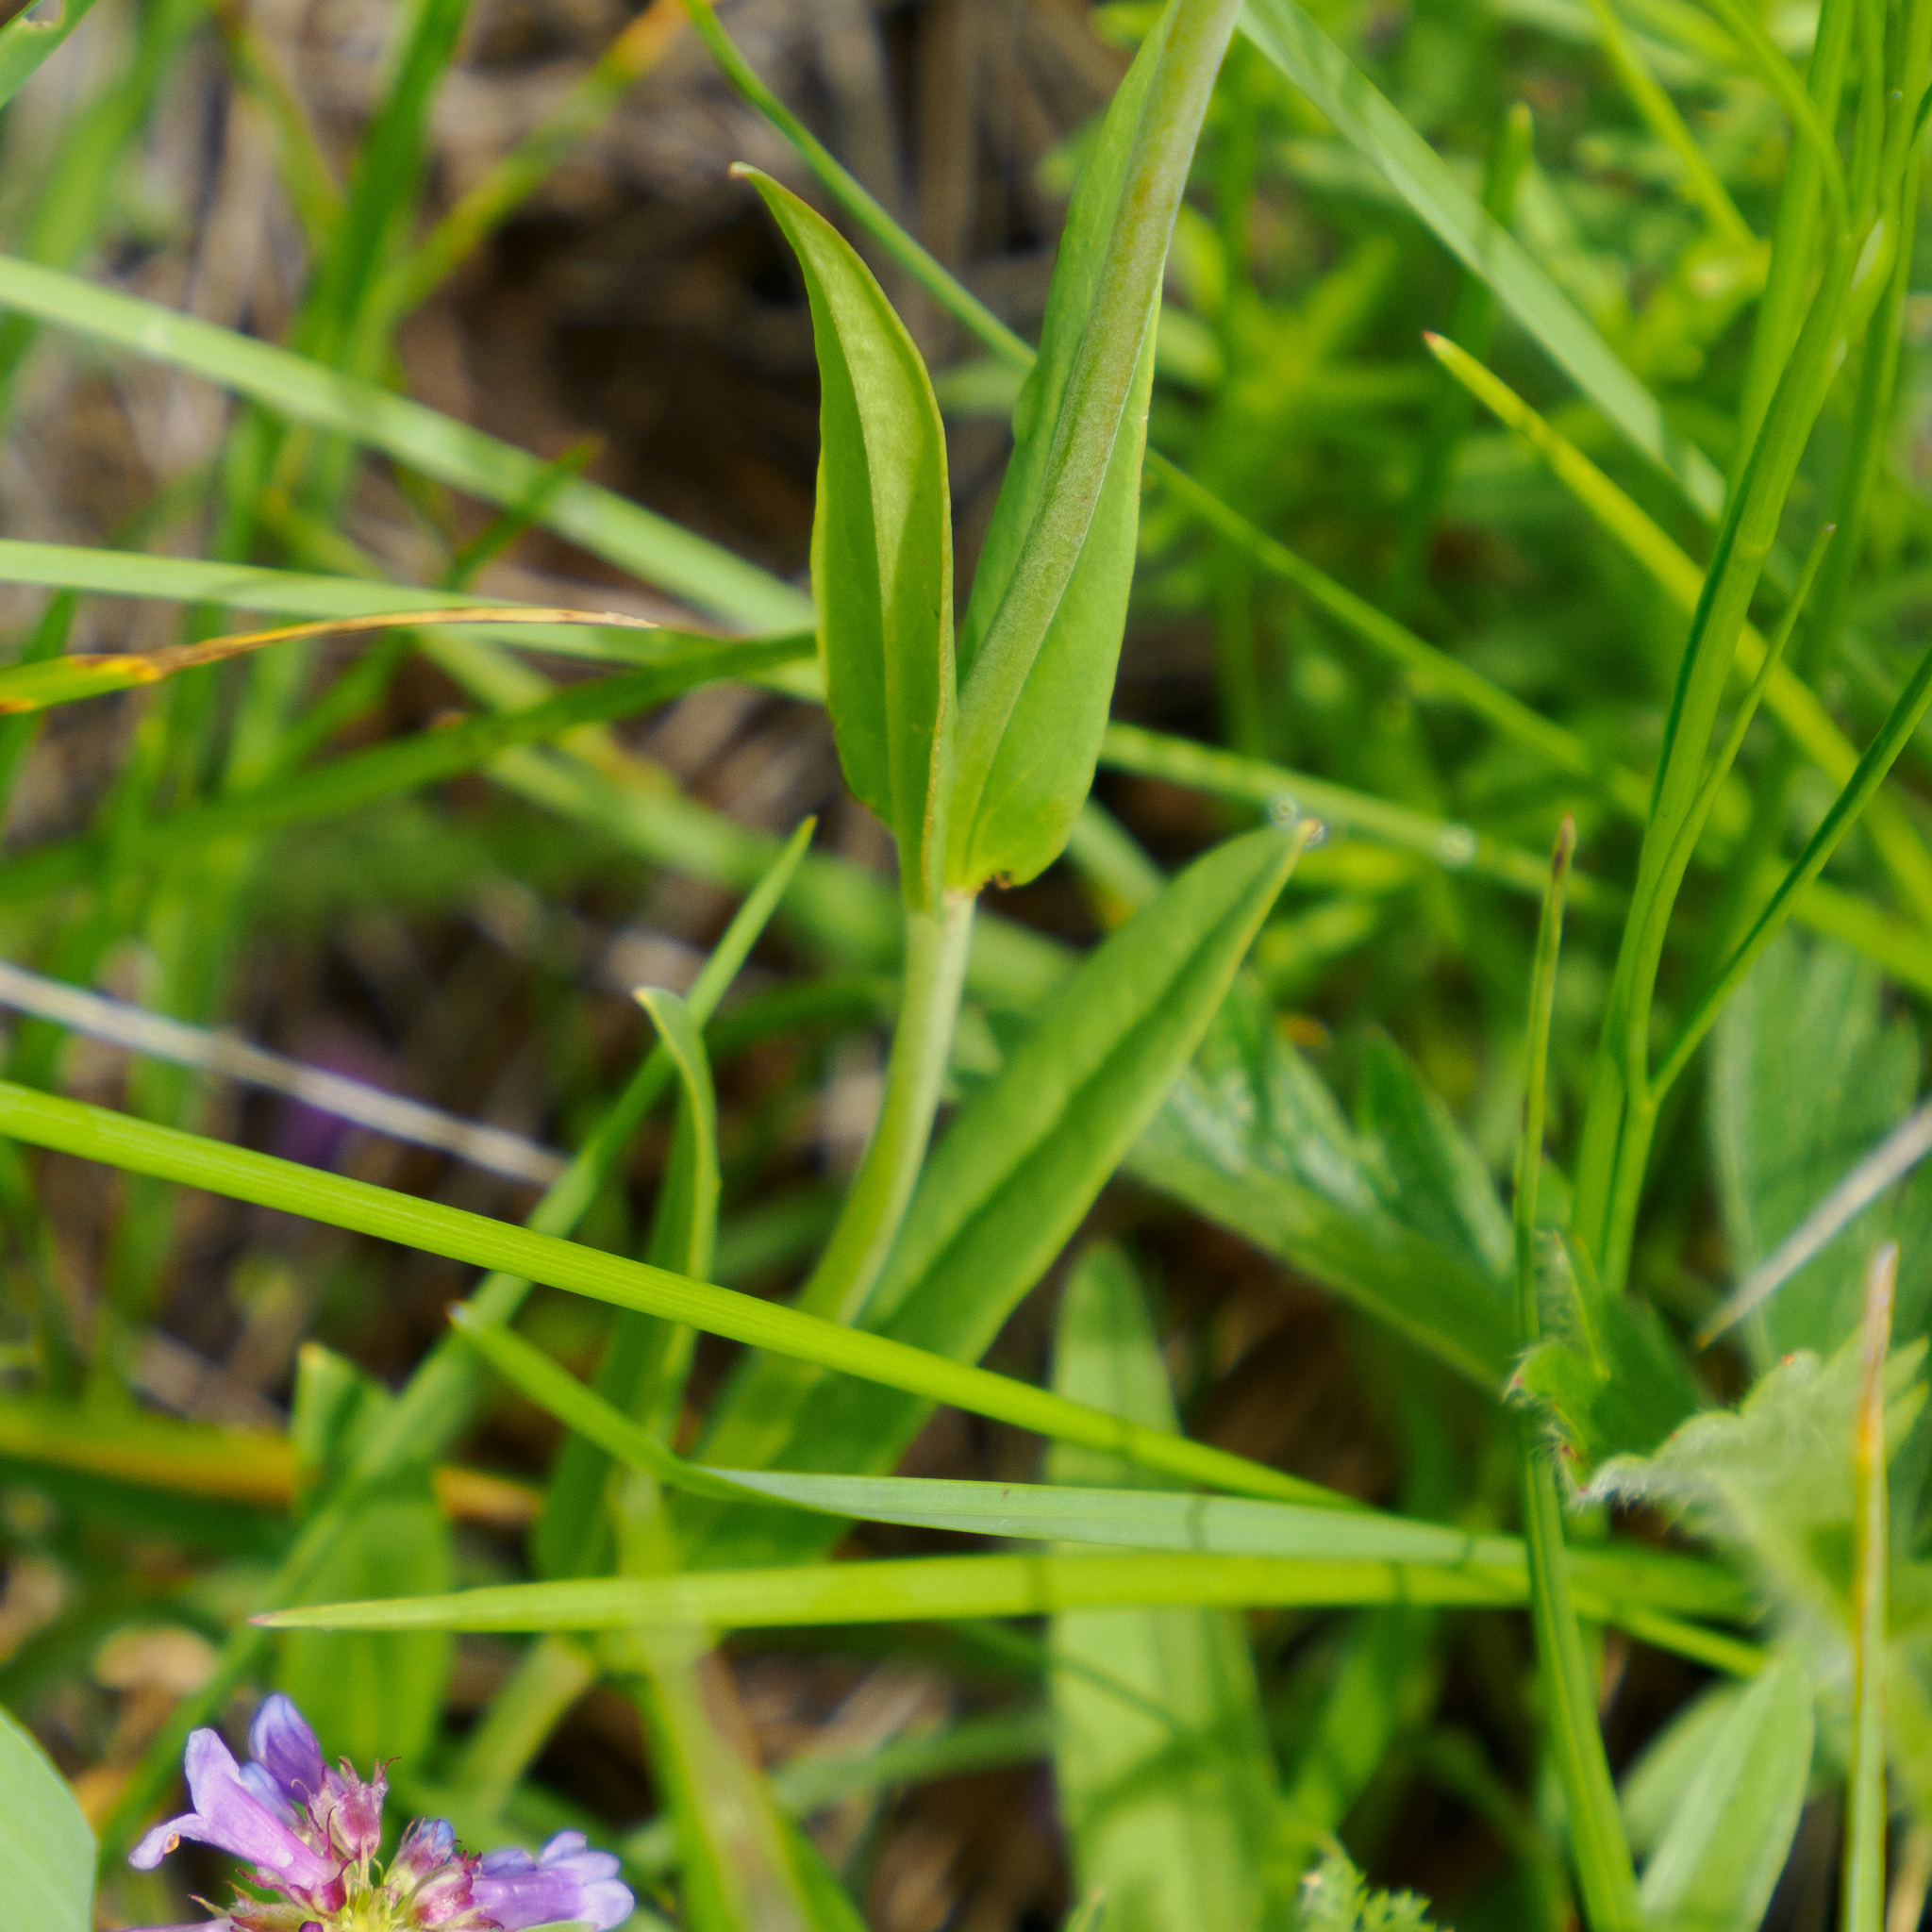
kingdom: Plantae
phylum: Tracheophyta
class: Magnoliopsida
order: Lamiales
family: Plantaginaceae
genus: Penstemon
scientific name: Penstemon procerus
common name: Small-flower penstemon
